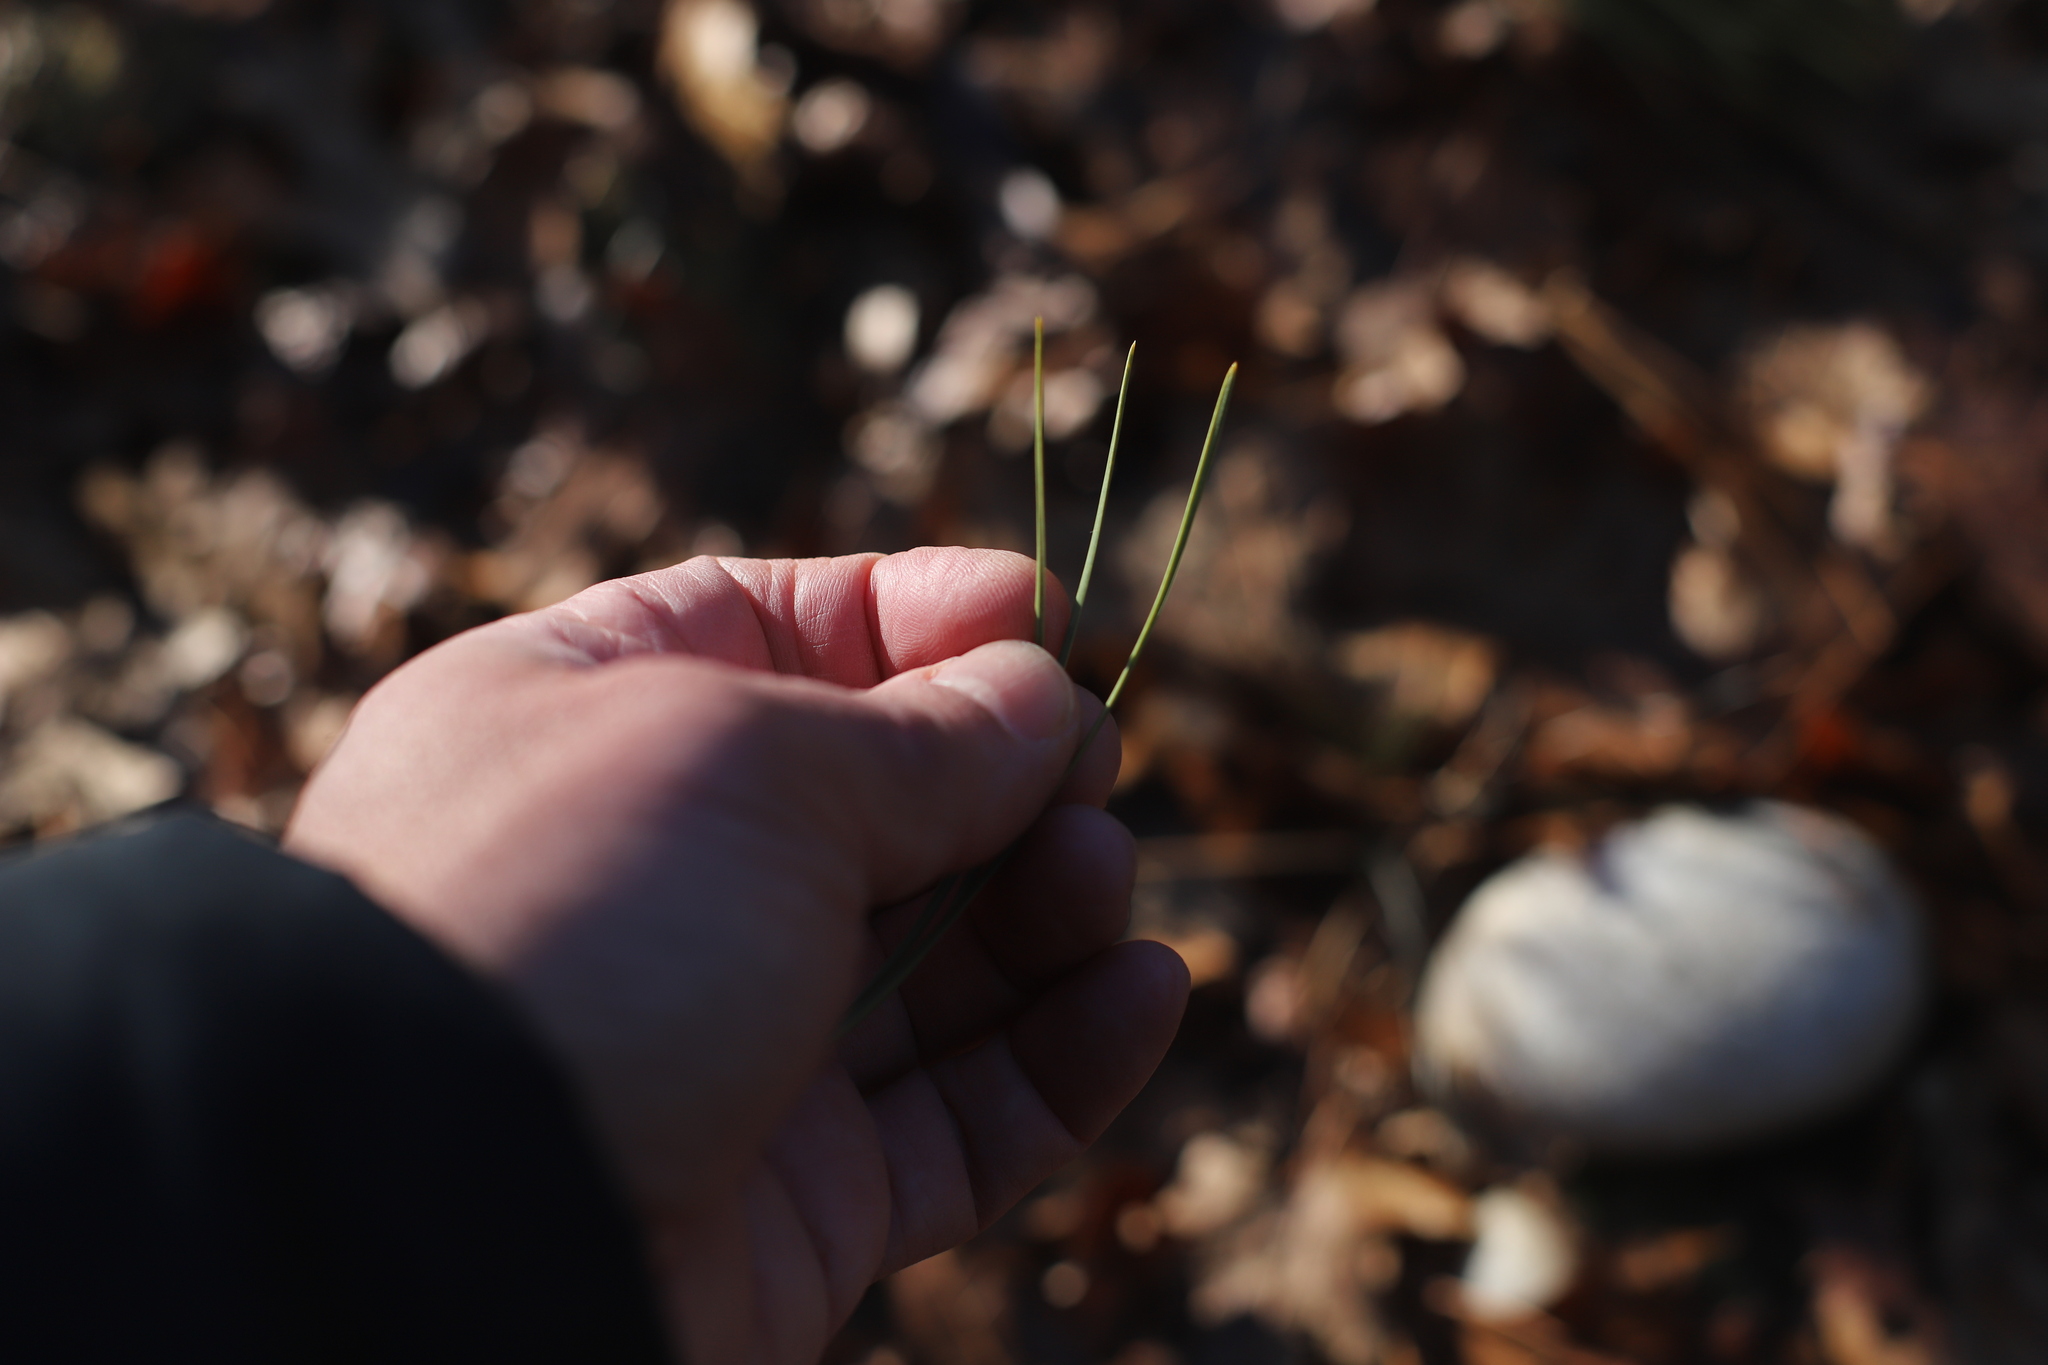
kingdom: Plantae
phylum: Tracheophyta
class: Pinopsida
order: Pinales
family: Pinaceae
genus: Pinus
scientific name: Pinus rigida
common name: Pitch pine
